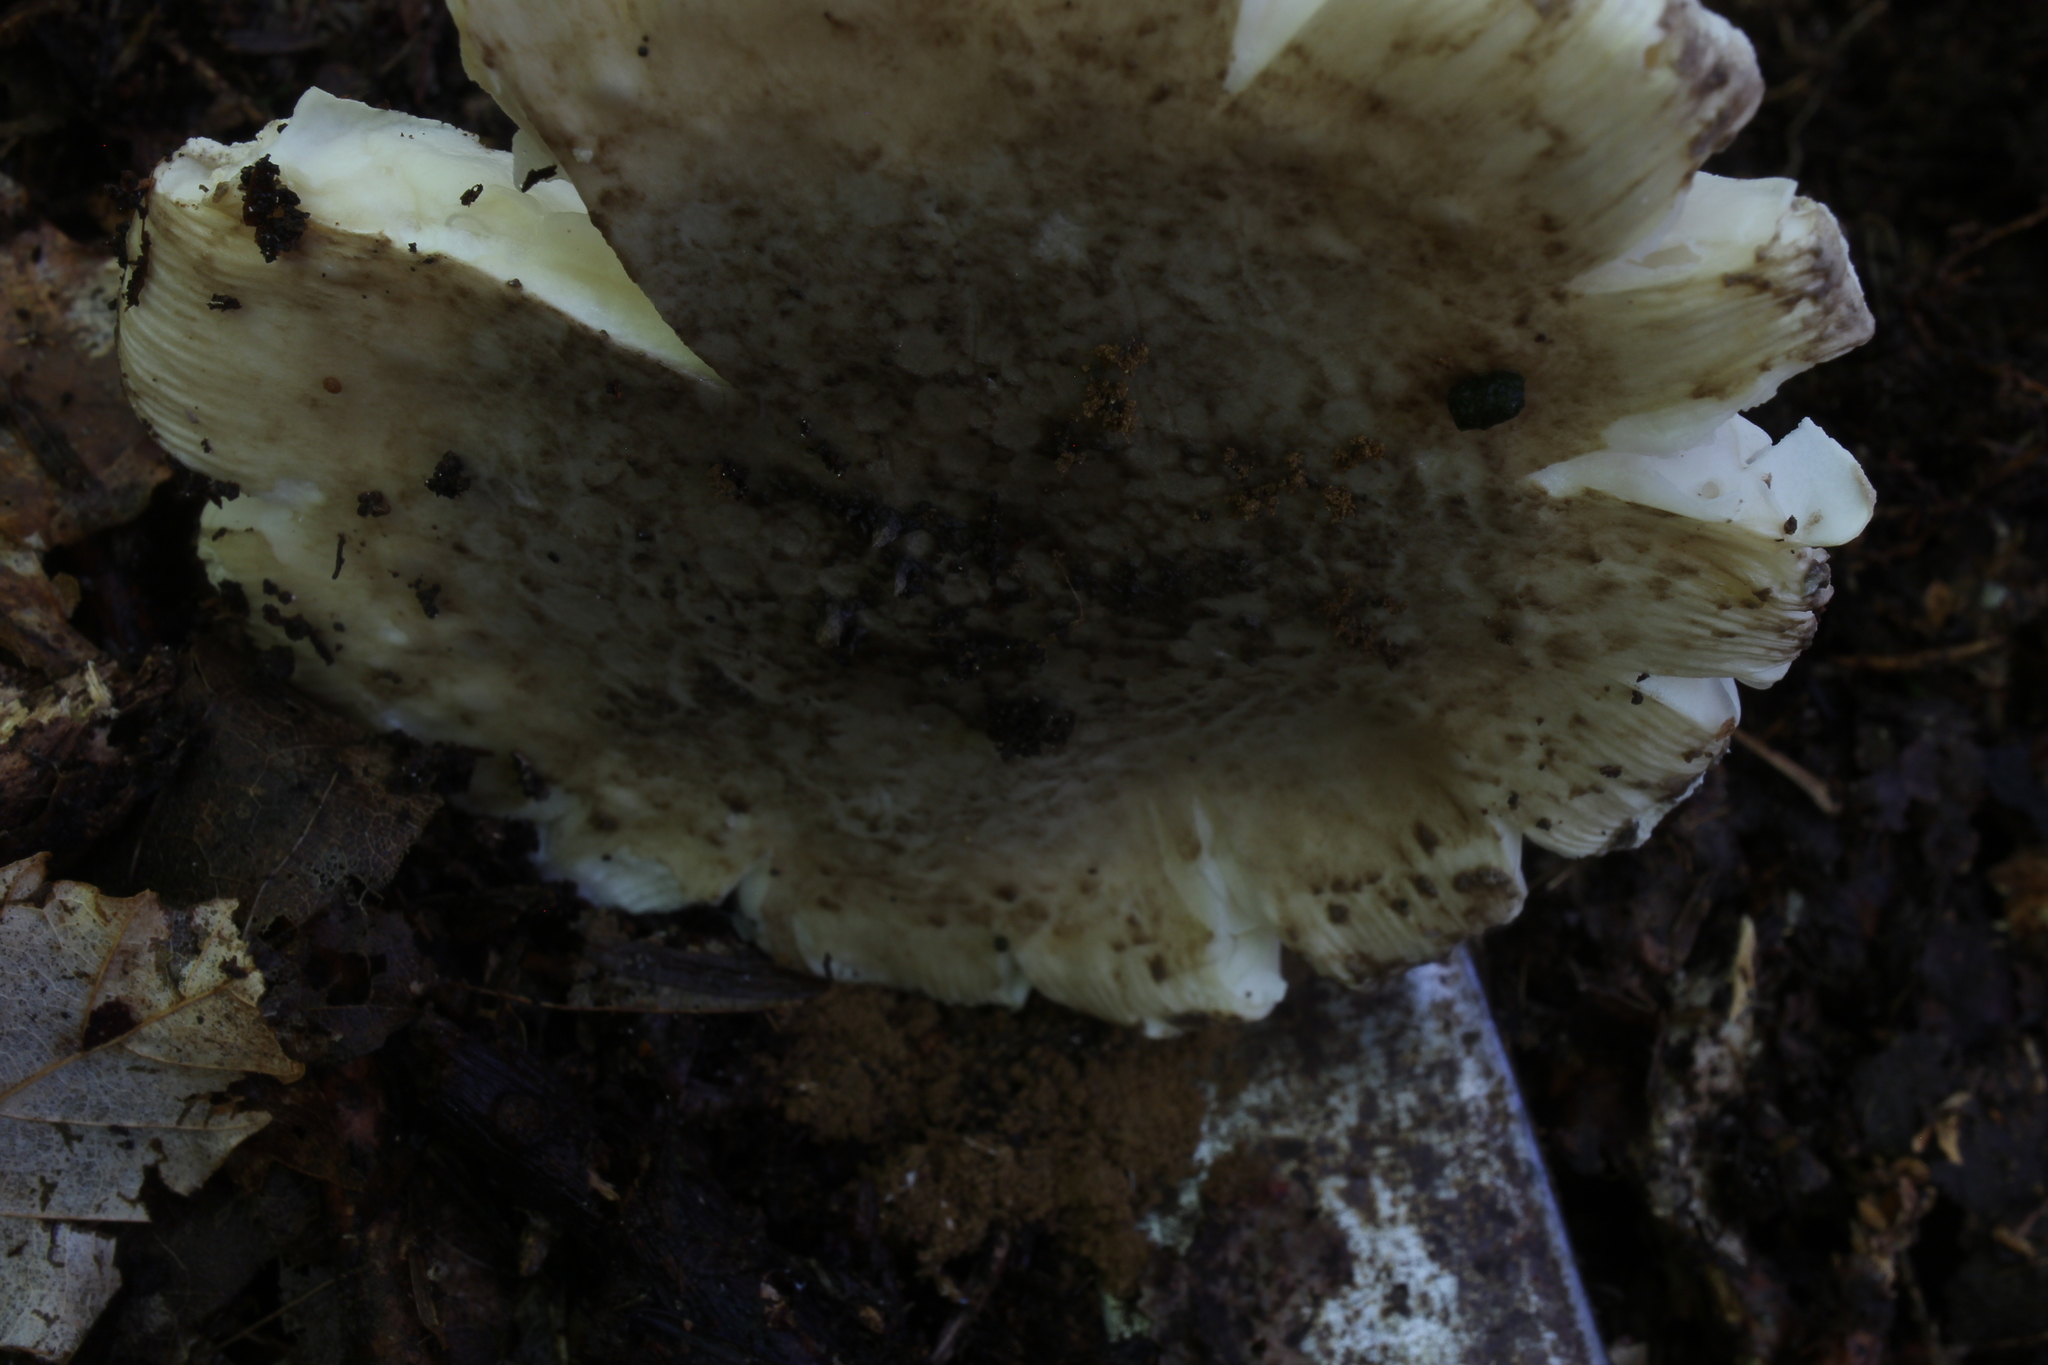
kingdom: Fungi
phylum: Basidiomycota
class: Agaricomycetes
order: Agaricales
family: Amanitaceae
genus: Amanita
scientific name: Amanita onusta
